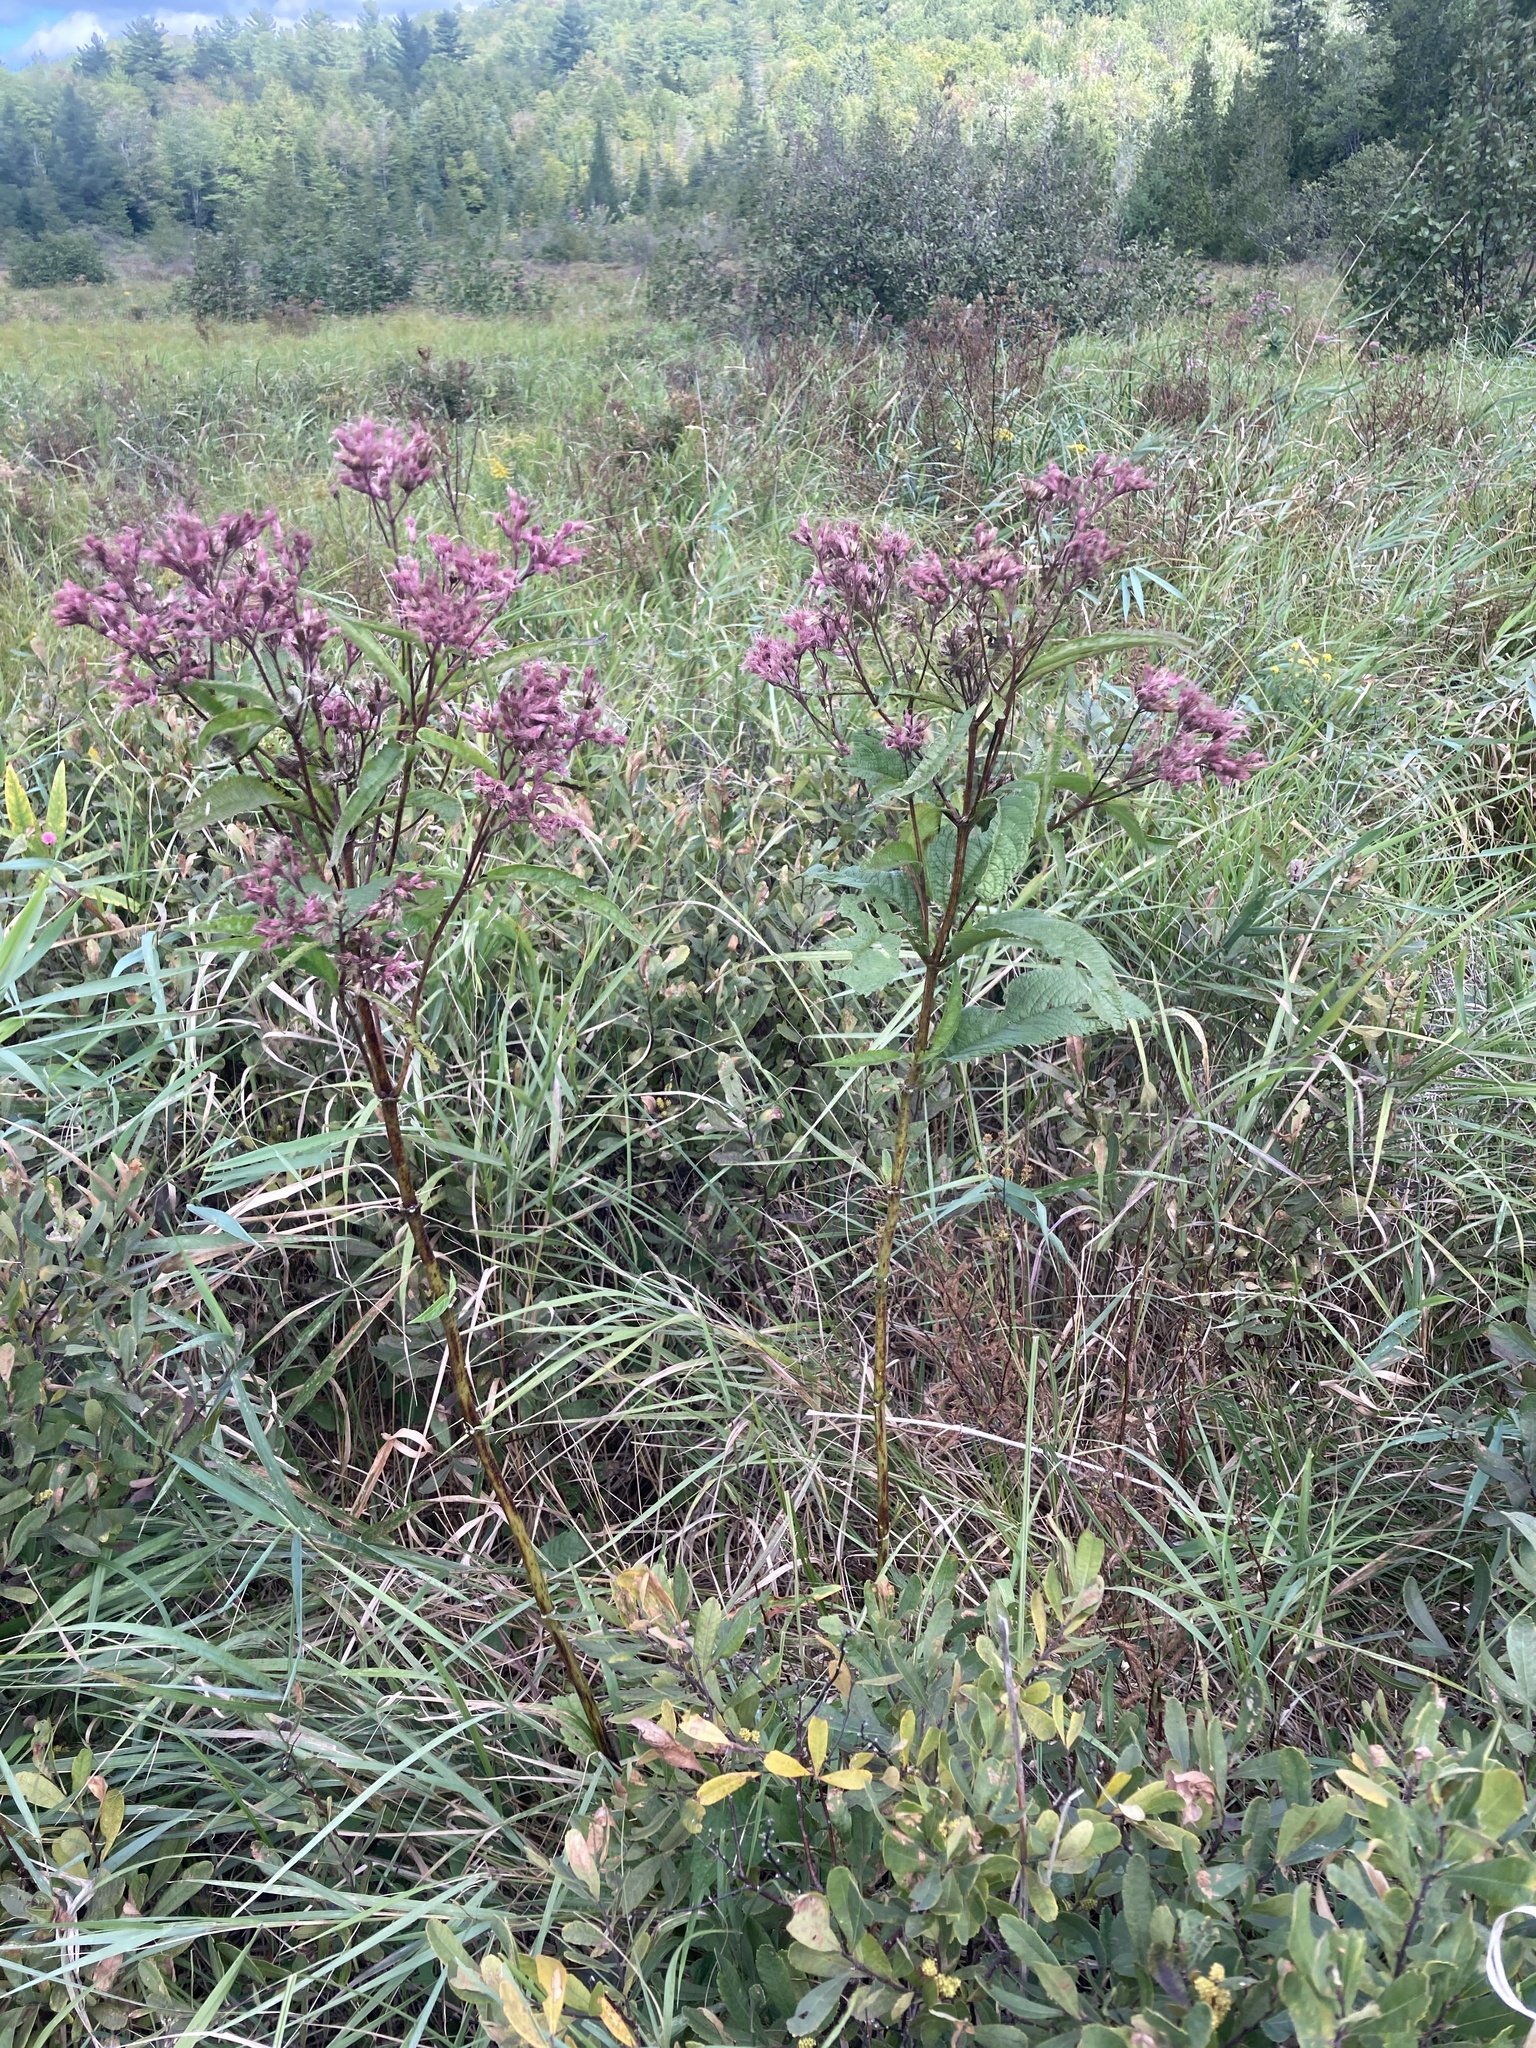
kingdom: Plantae
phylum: Tracheophyta
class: Magnoliopsida
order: Asterales
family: Asteraceae
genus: Eutrochium
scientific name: Eutrochium maculatum
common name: Spotted joe pye weed
